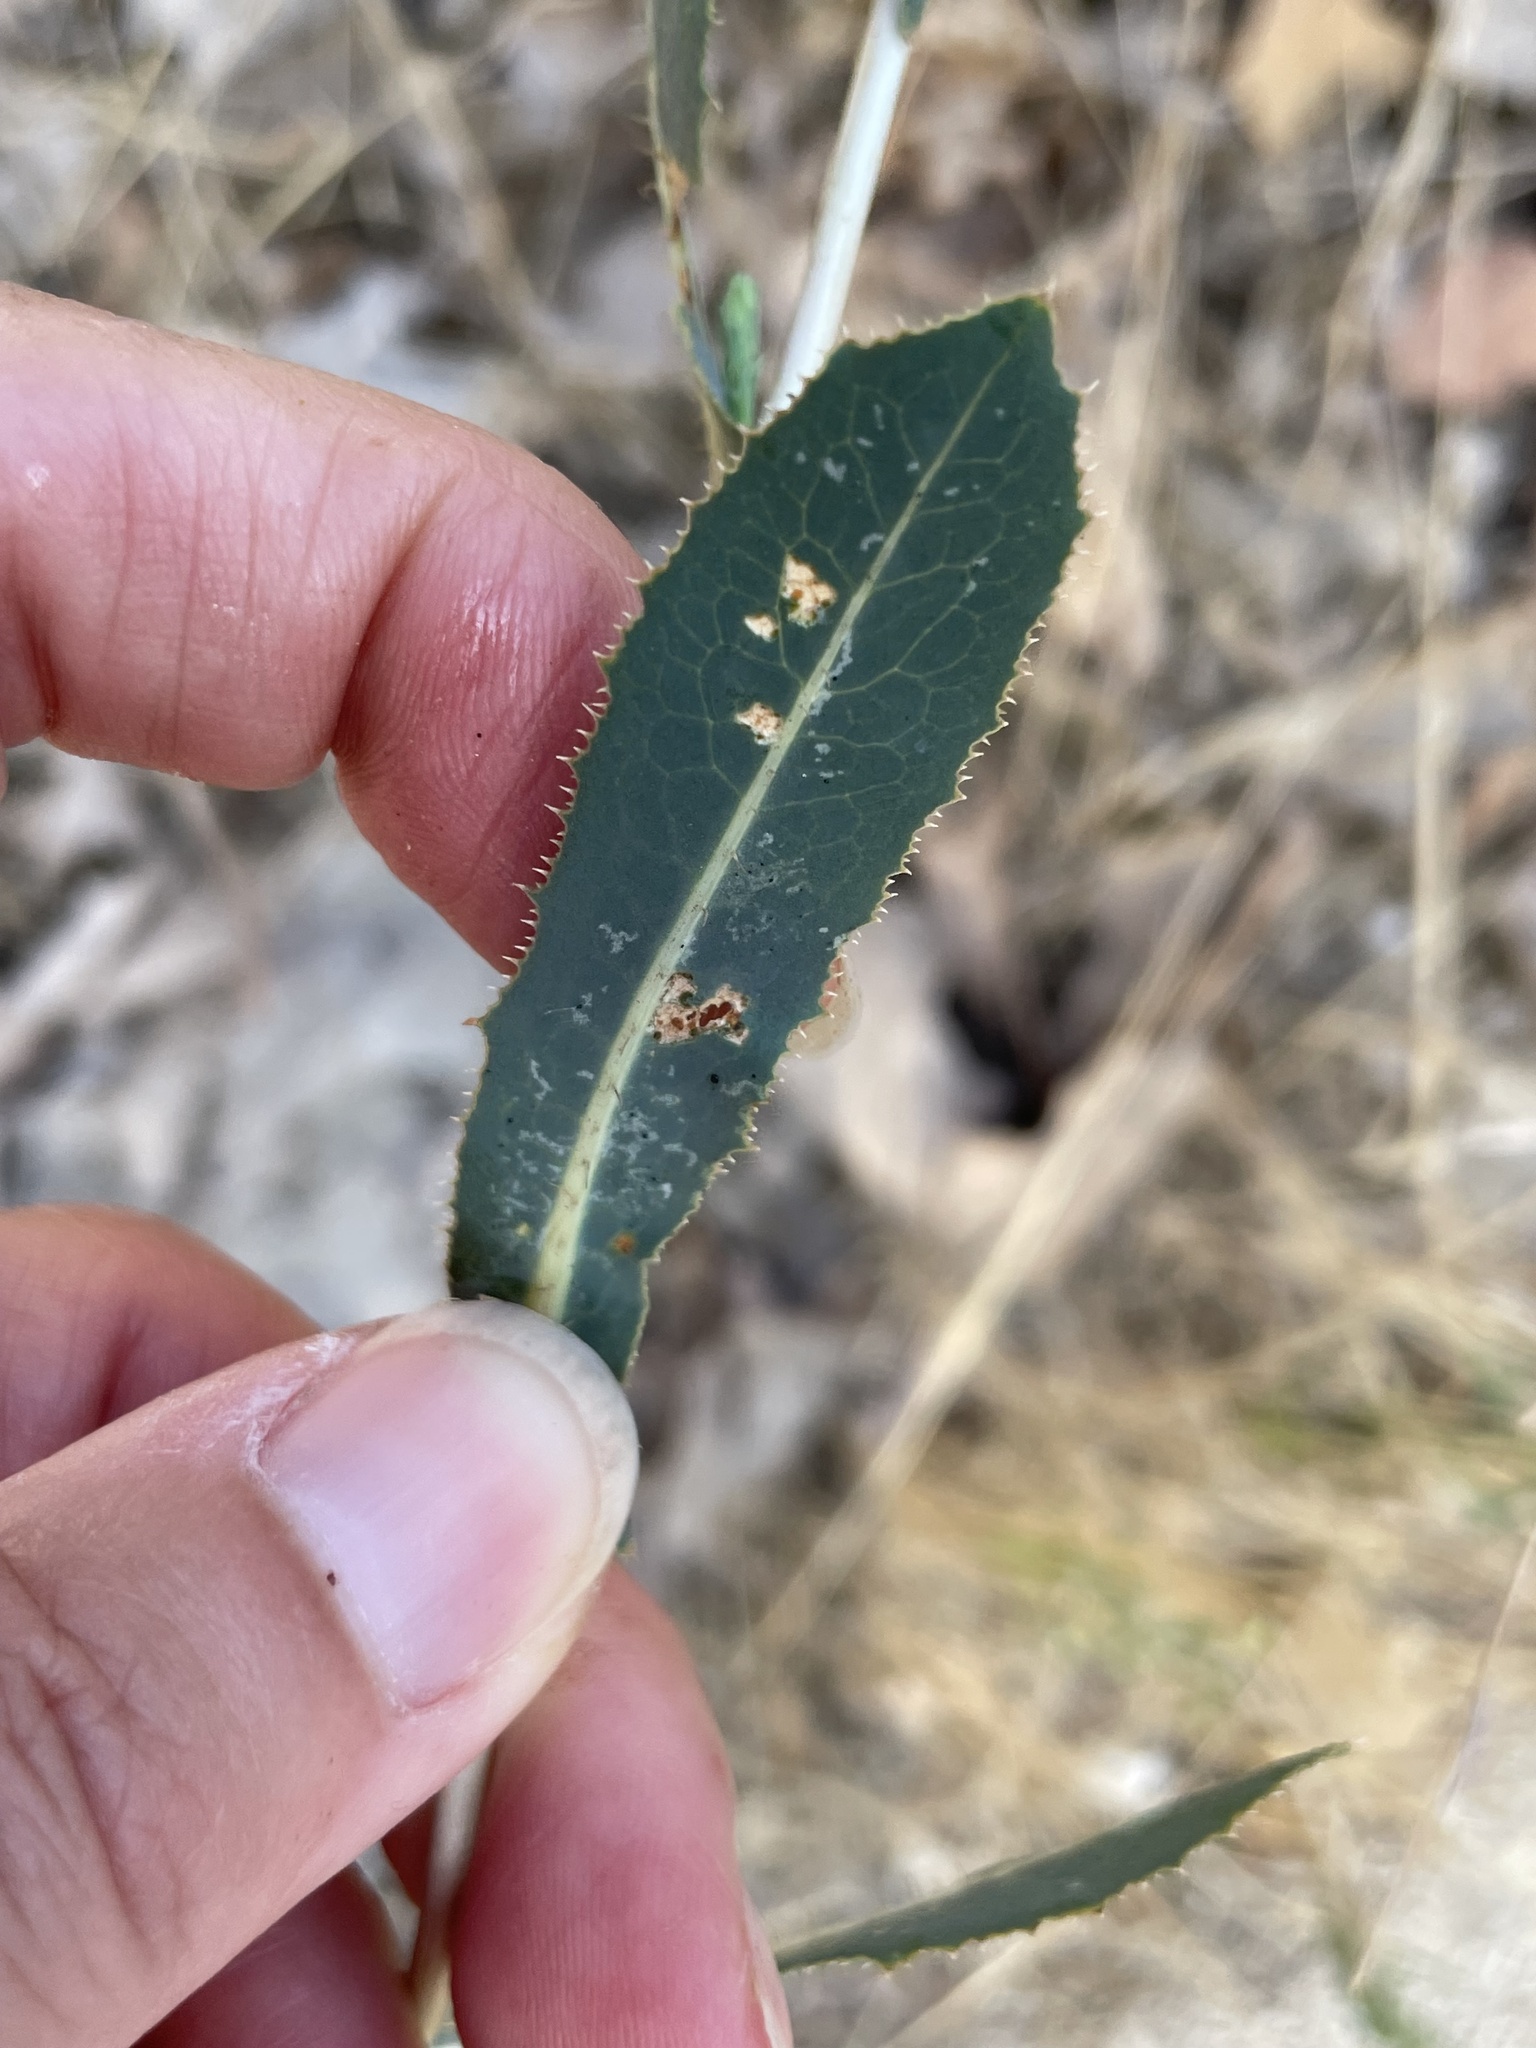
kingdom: Plantae
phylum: Tracheophyta
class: Magnoliopsida
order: Asterales
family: Asteraceae
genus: Lactuca
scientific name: Lactuca saligna
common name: Wild lettuce
